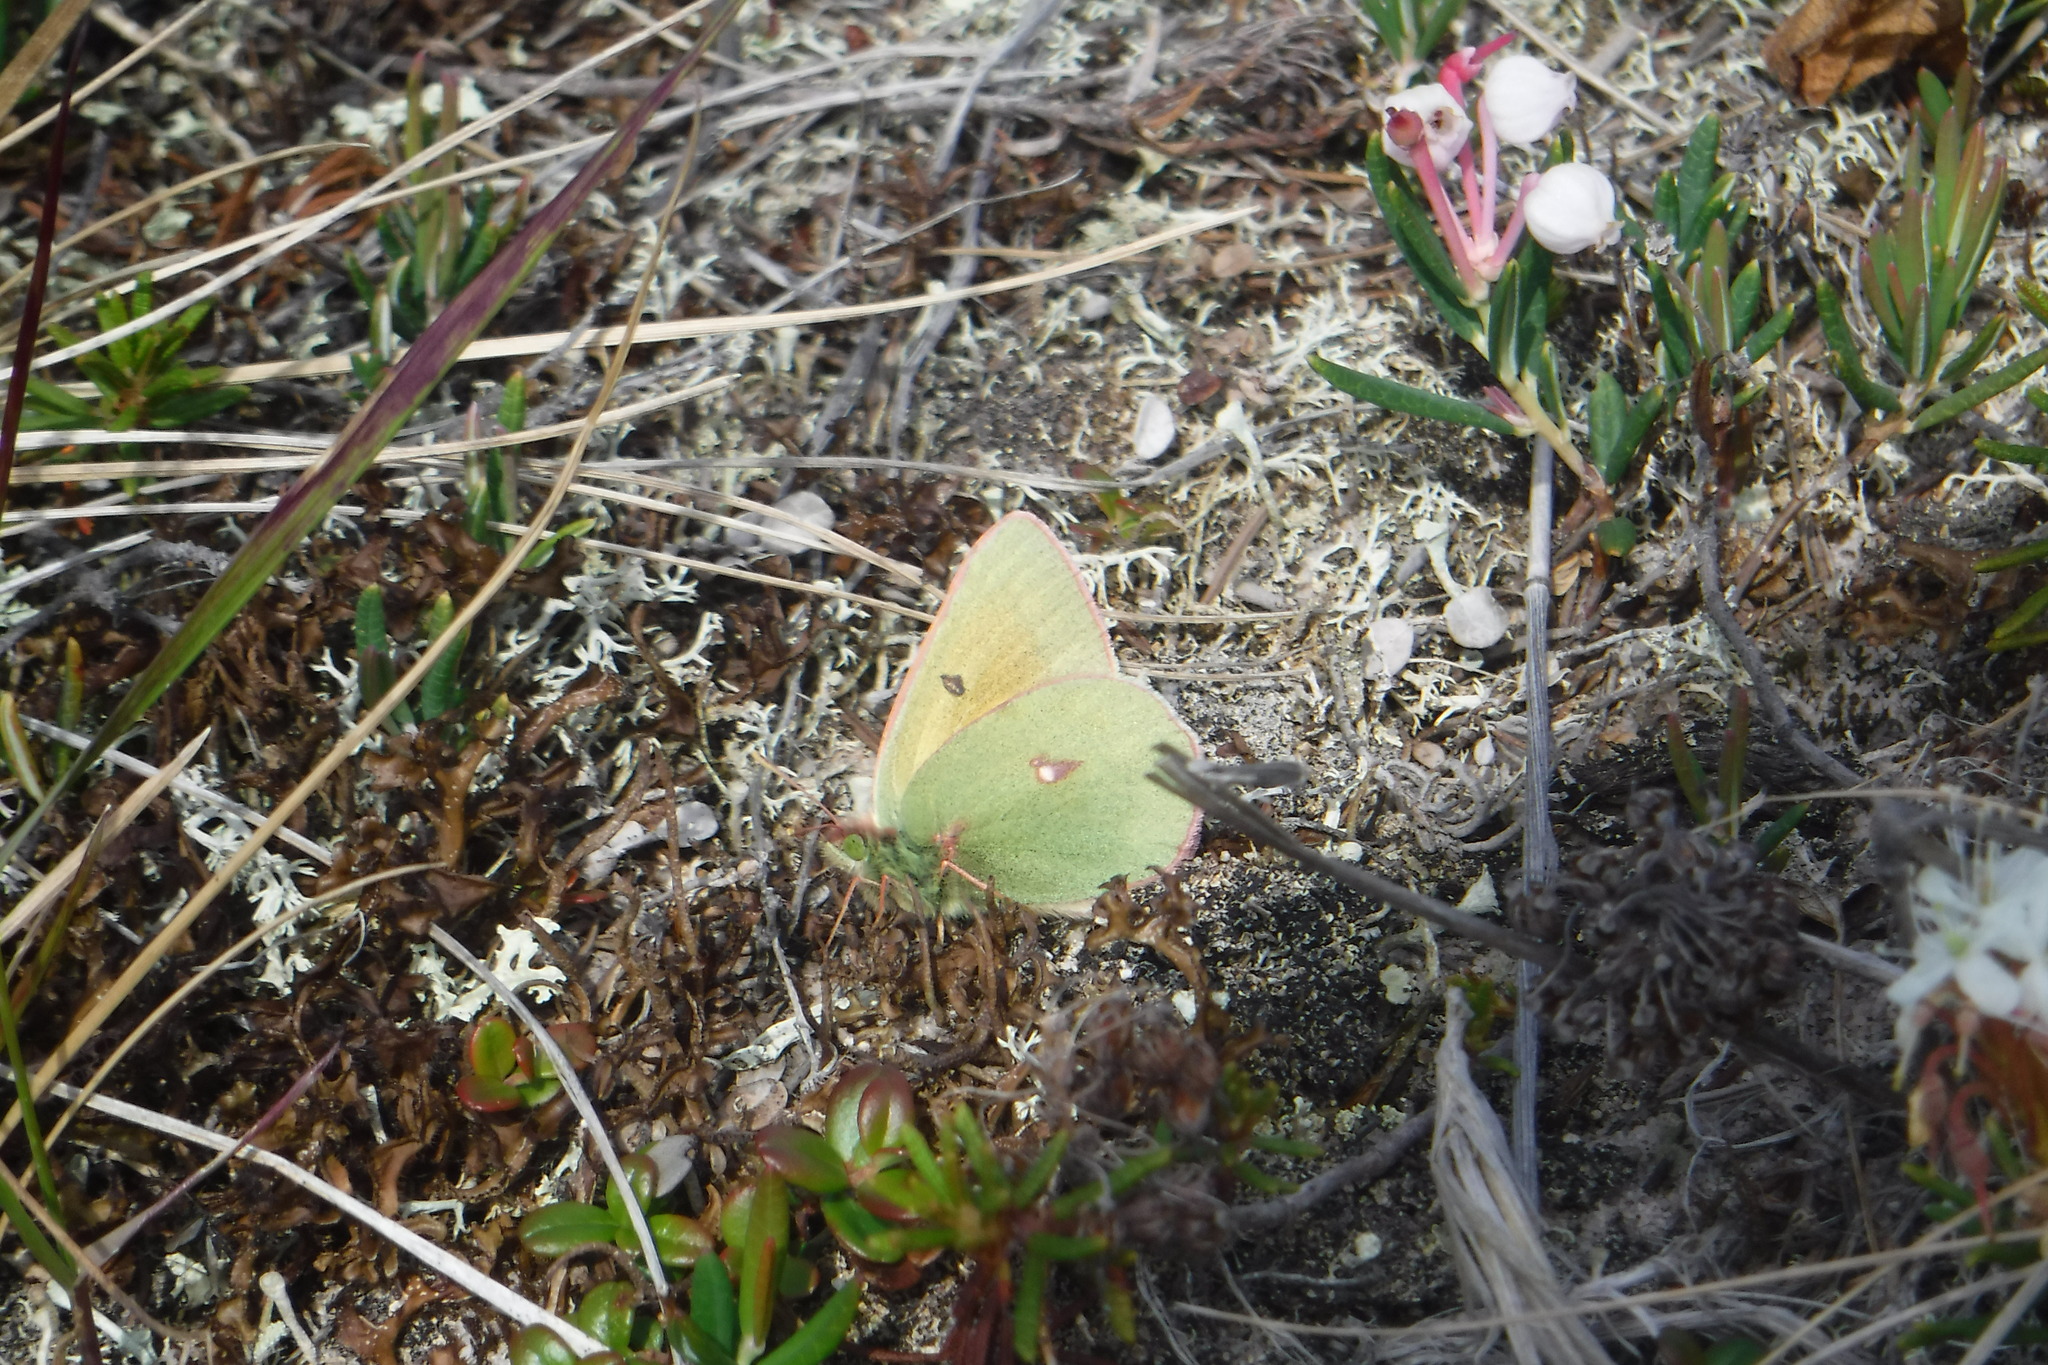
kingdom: Animalia
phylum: Arthropoda
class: Insecta
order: Lepidoptera
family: Pieridae
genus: Colias
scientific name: Colias hecla
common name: Northern clouded yellow
